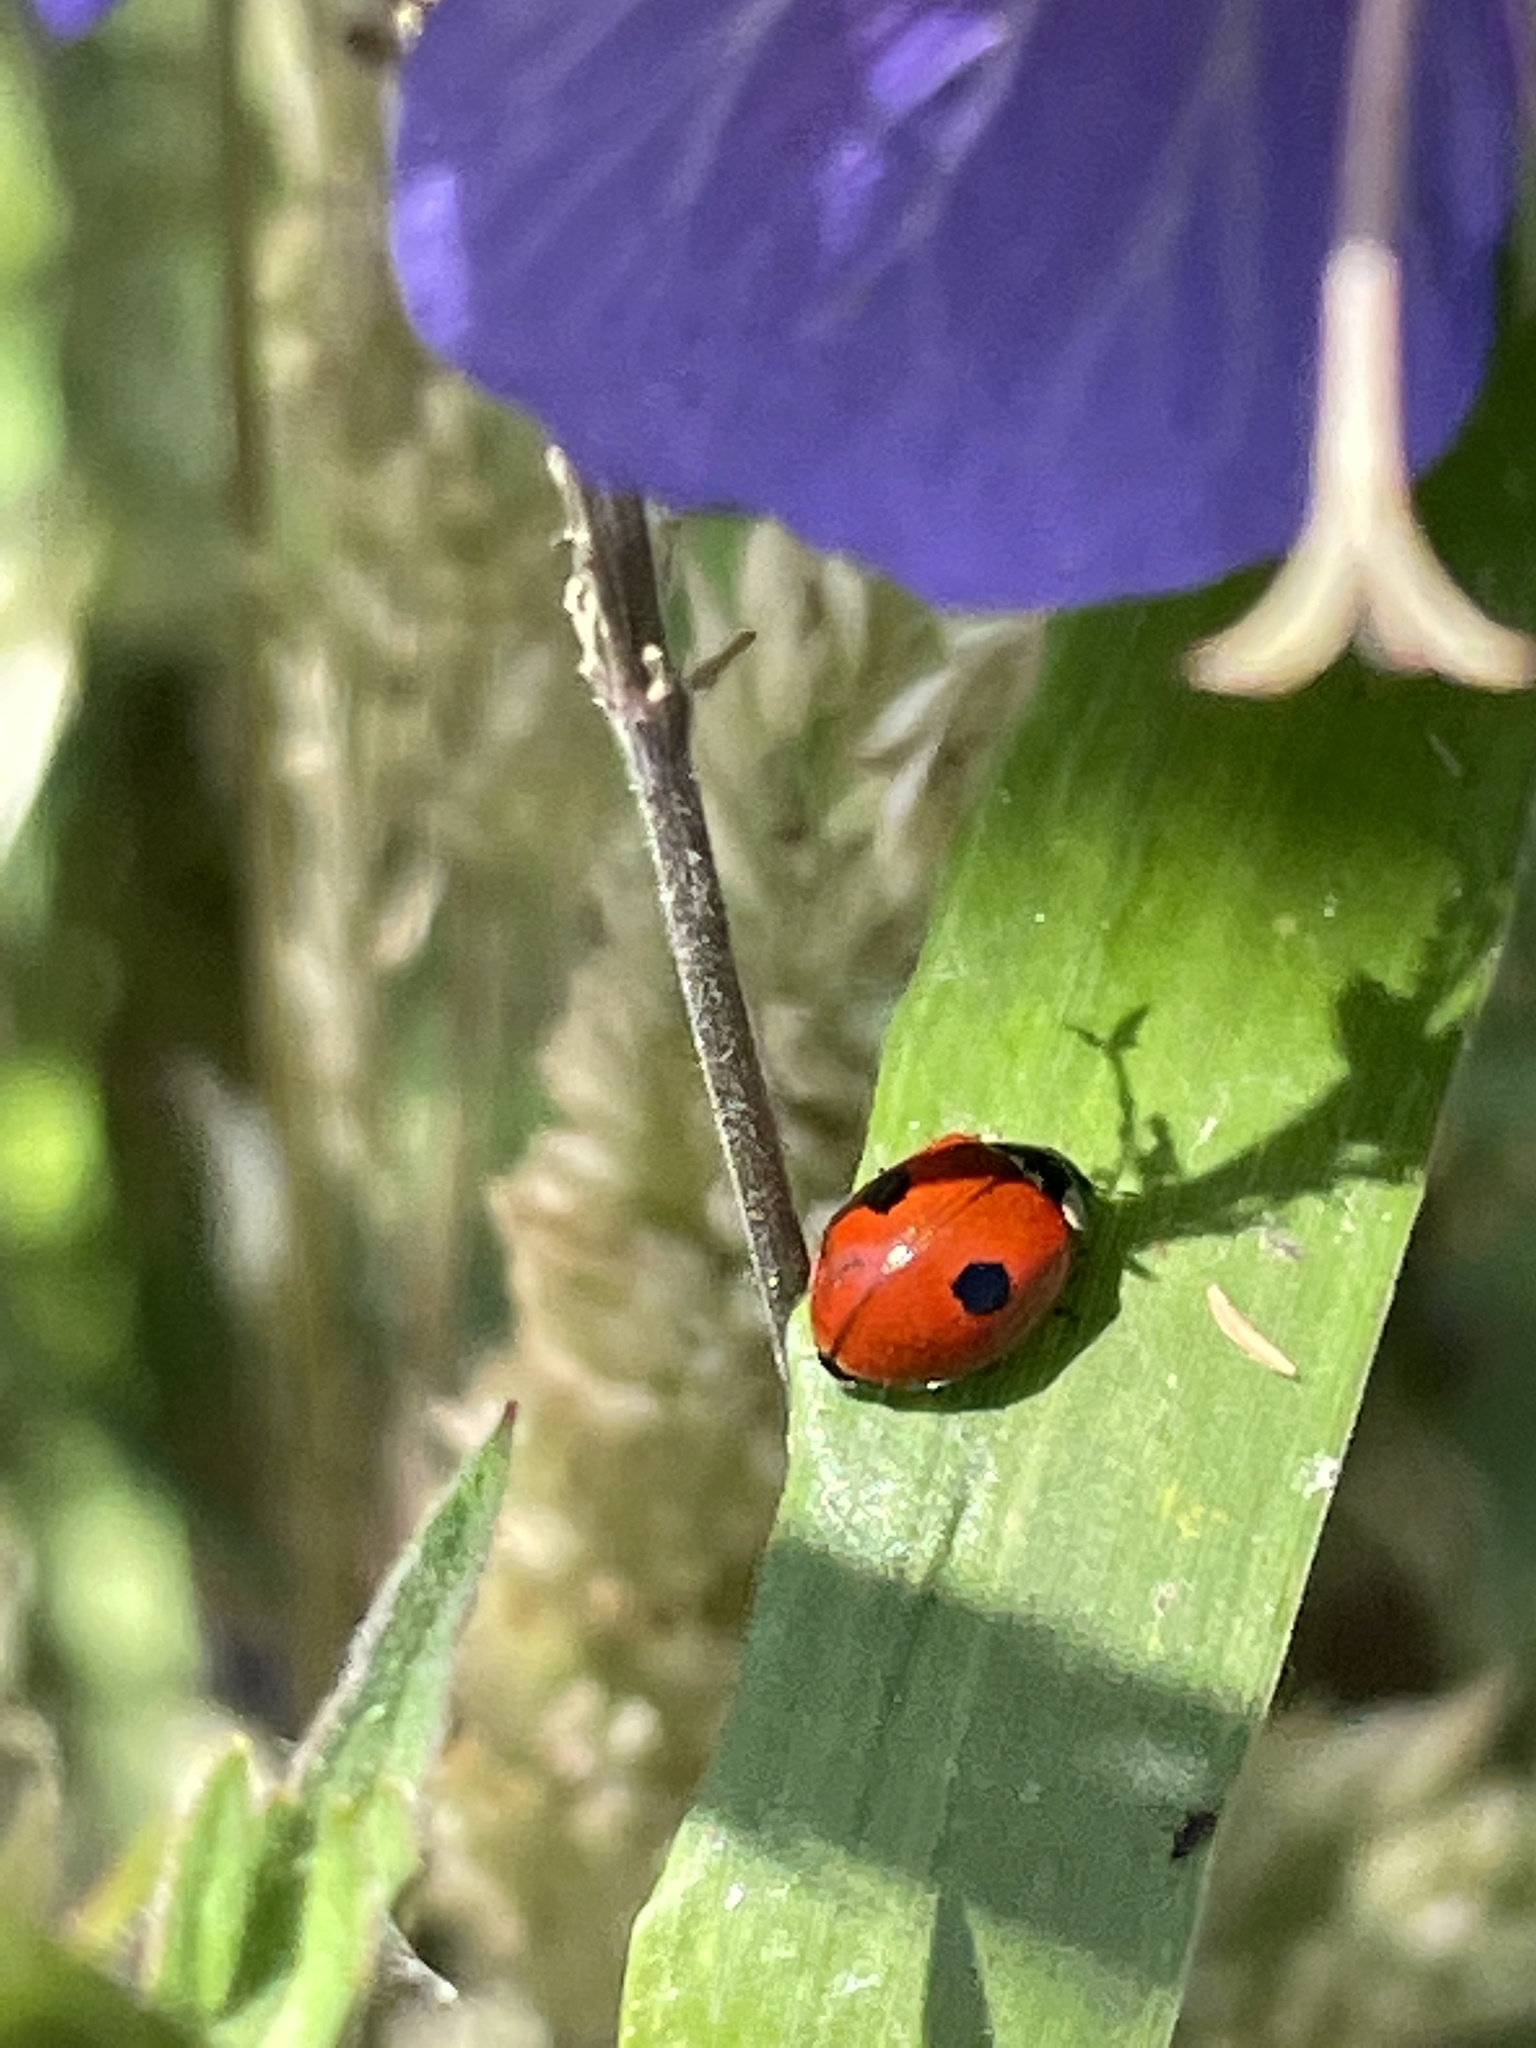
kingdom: Animalia
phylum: Arthropoda
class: Insecta
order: Coleoptera
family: Coccinellidae
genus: Adalia
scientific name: Adalia bipunctata
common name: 2-spot ladybird
